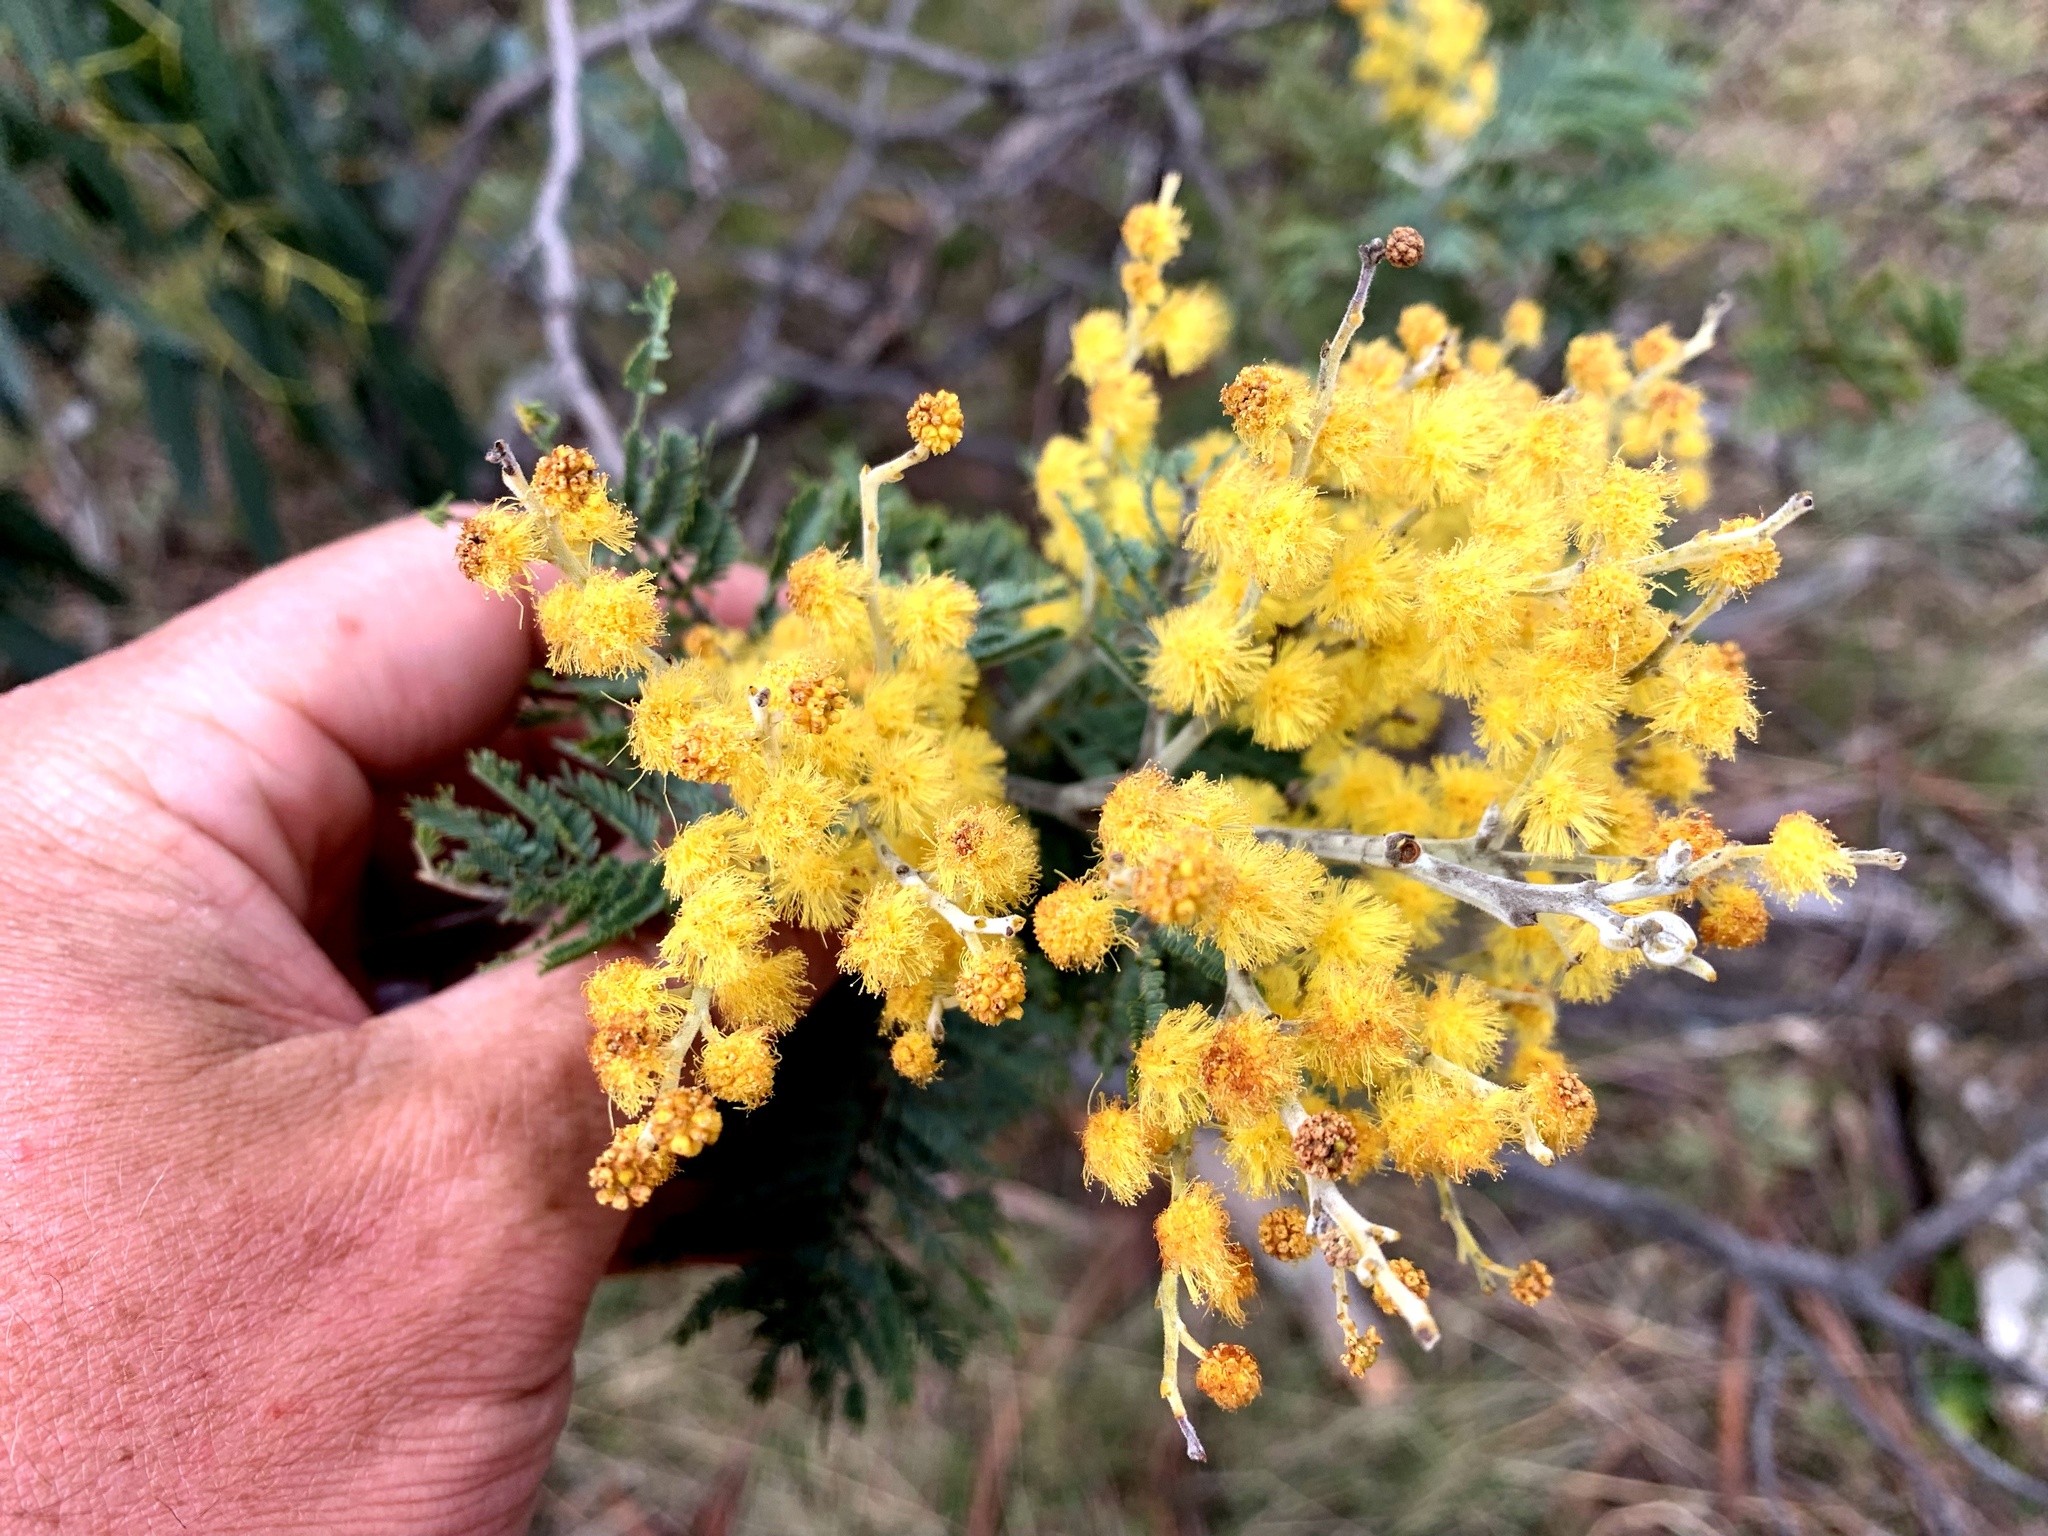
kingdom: Plantae
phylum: Tracheophyta
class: Magnoliopsida
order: Fabales
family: Fabaceae
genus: Acacia
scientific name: Acacia dealbata
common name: Silver wattle
